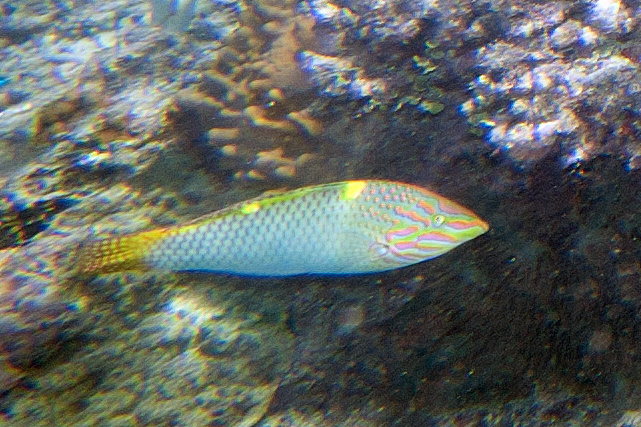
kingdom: Animalia
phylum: Chordata
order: Perciformes
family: Labridae
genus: Halichoeres
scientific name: Halichoeres hortulanus
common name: Checkerboard wrasse
